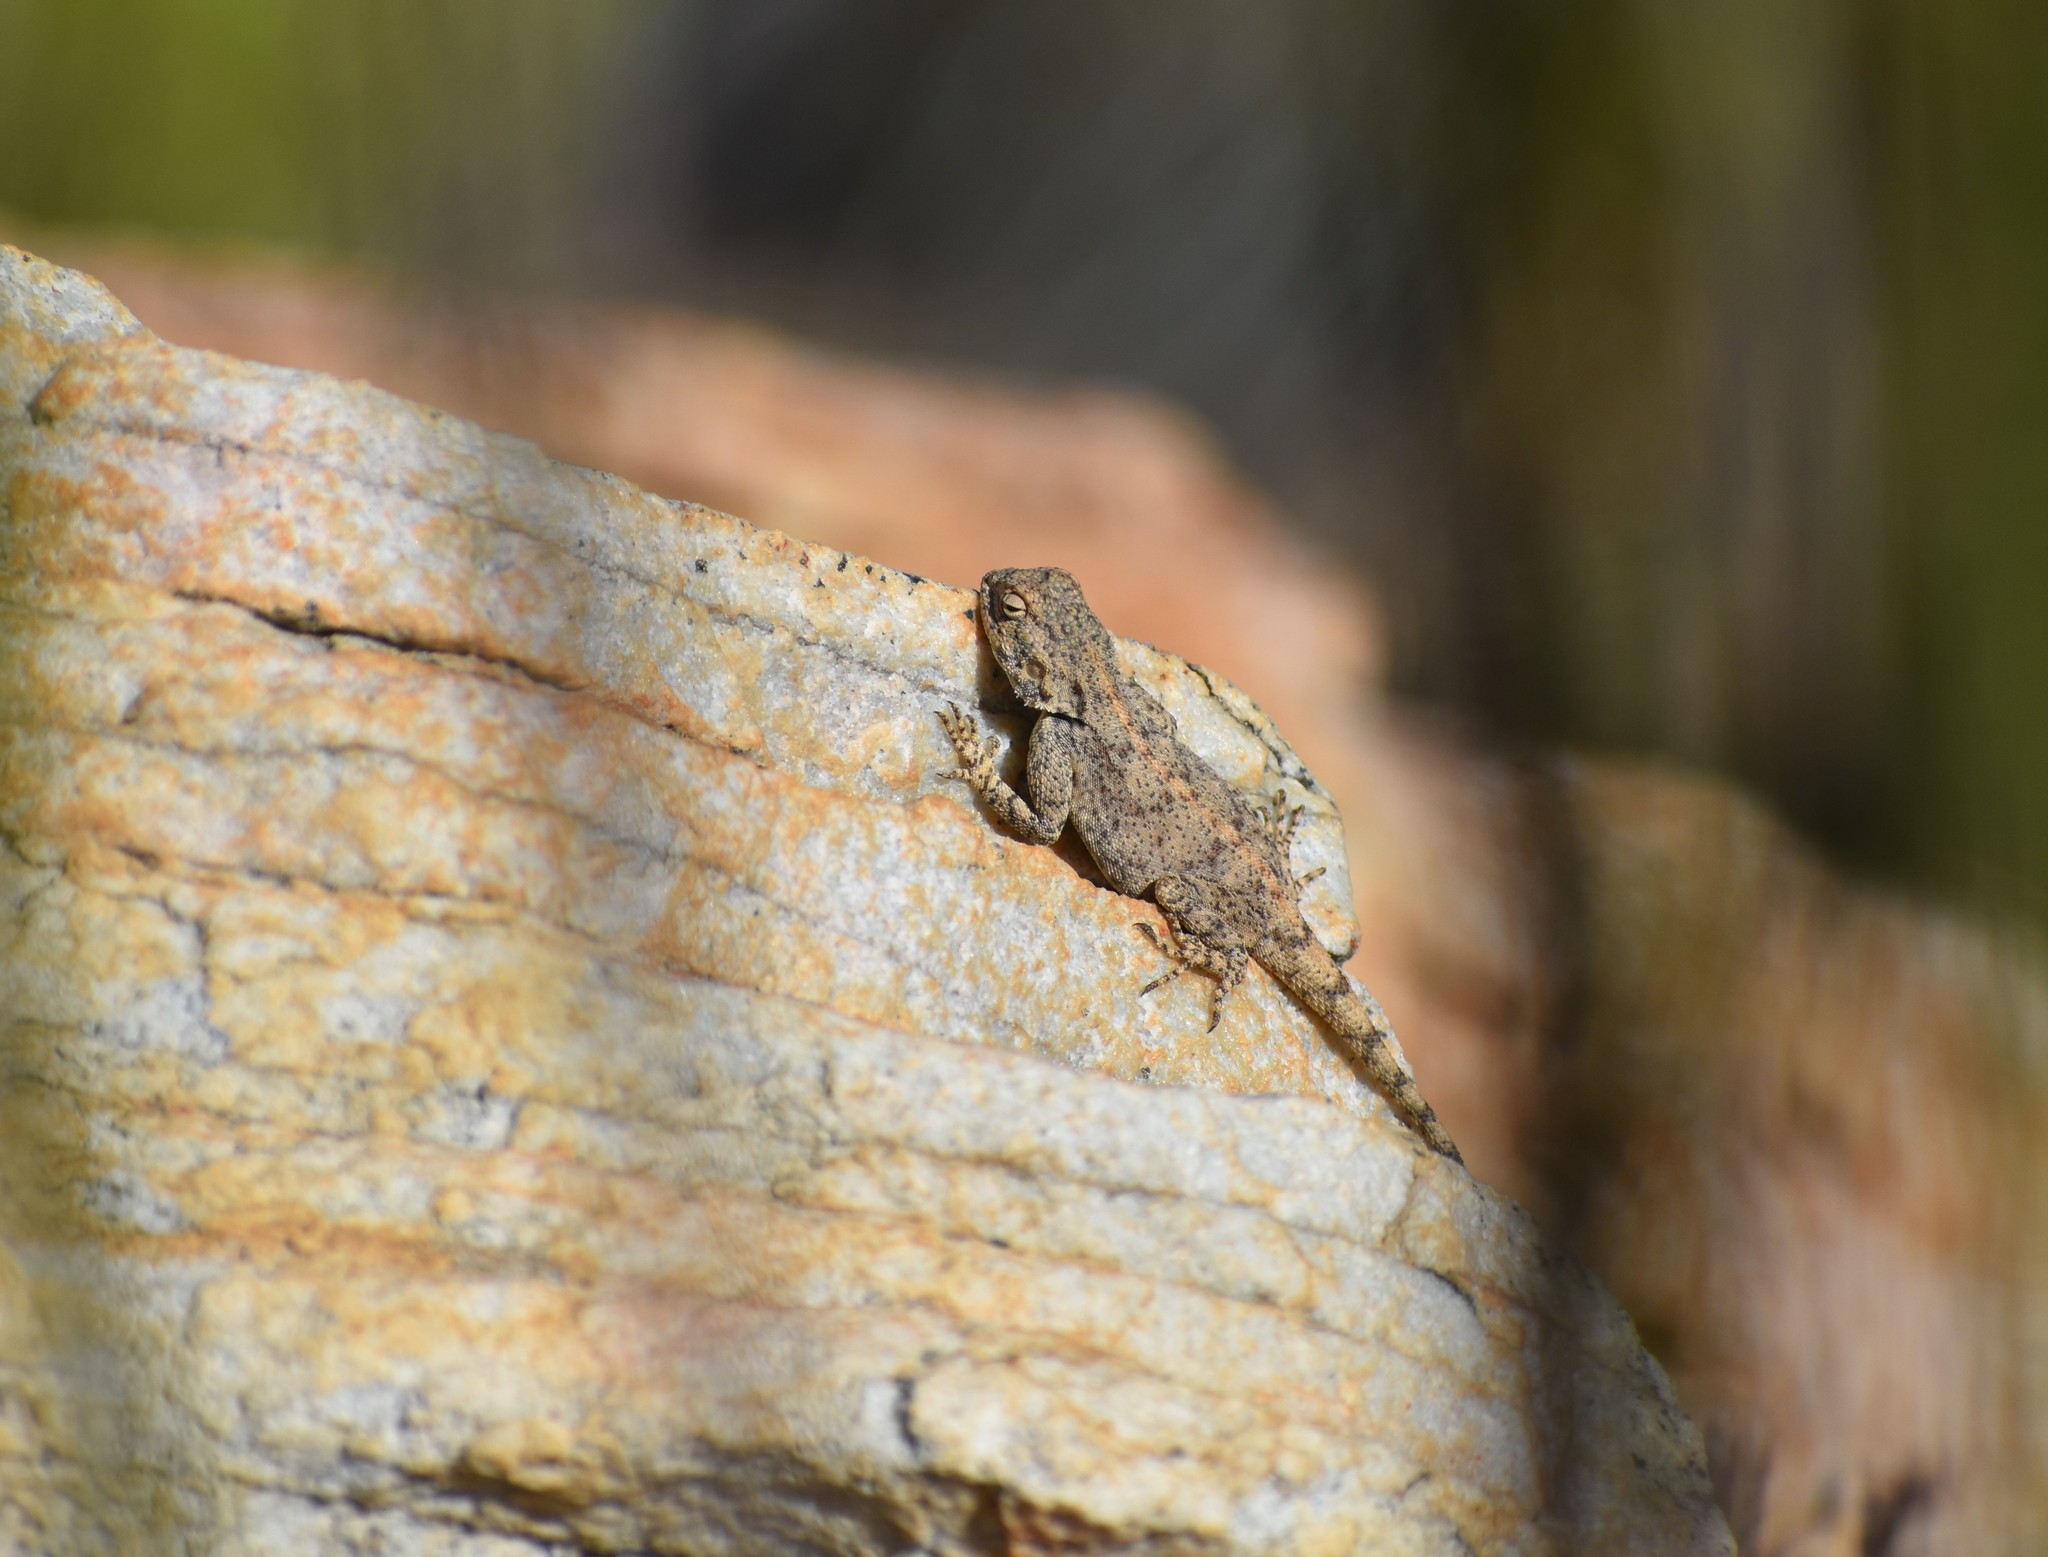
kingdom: Animalia
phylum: Chordata
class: Squamata
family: Agamidae
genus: Agama
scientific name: Agama atra
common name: Southern african rock agama
